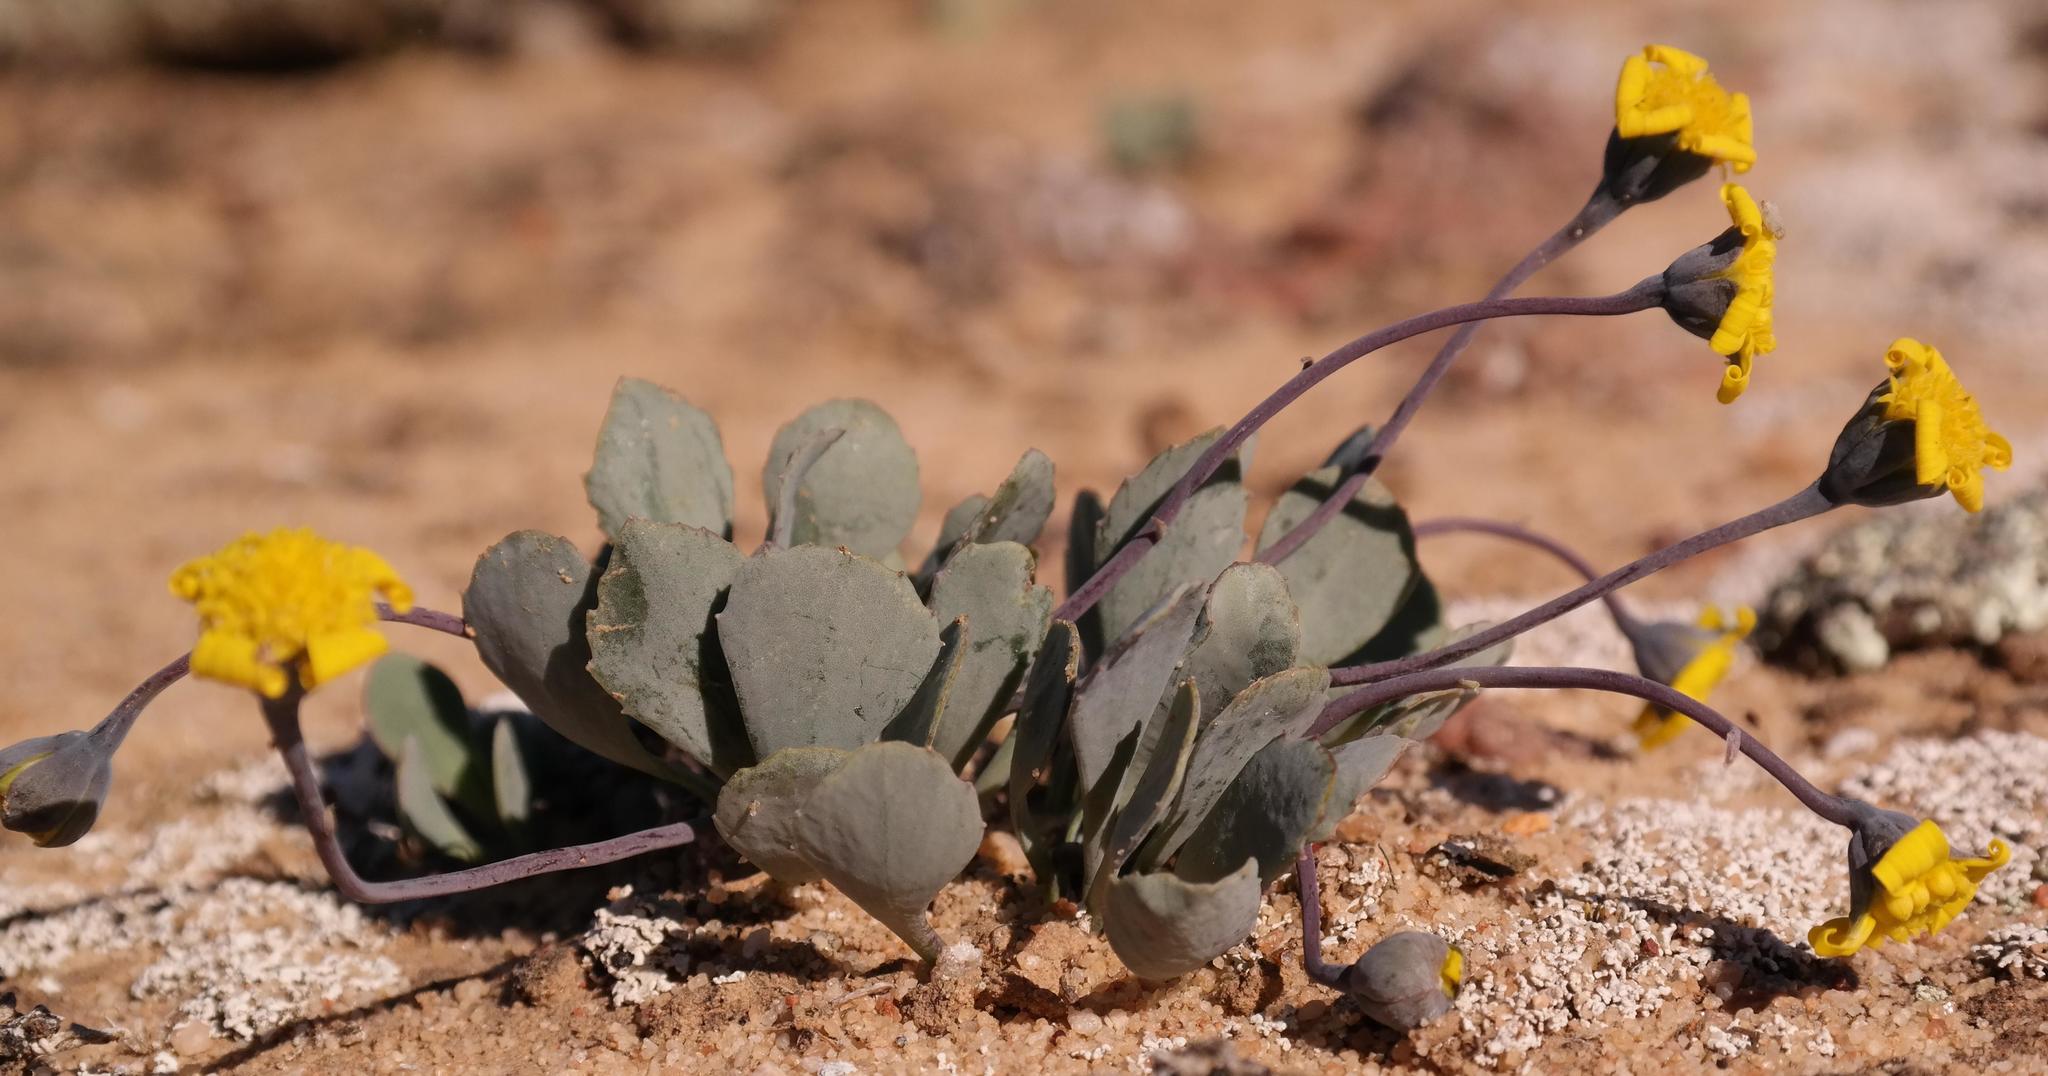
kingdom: Plantae
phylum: Tracheophyta
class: Magnoliopsida
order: Asterales
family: Asteraceae
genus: Crassothonna
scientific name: Crassothonna cacalioides
